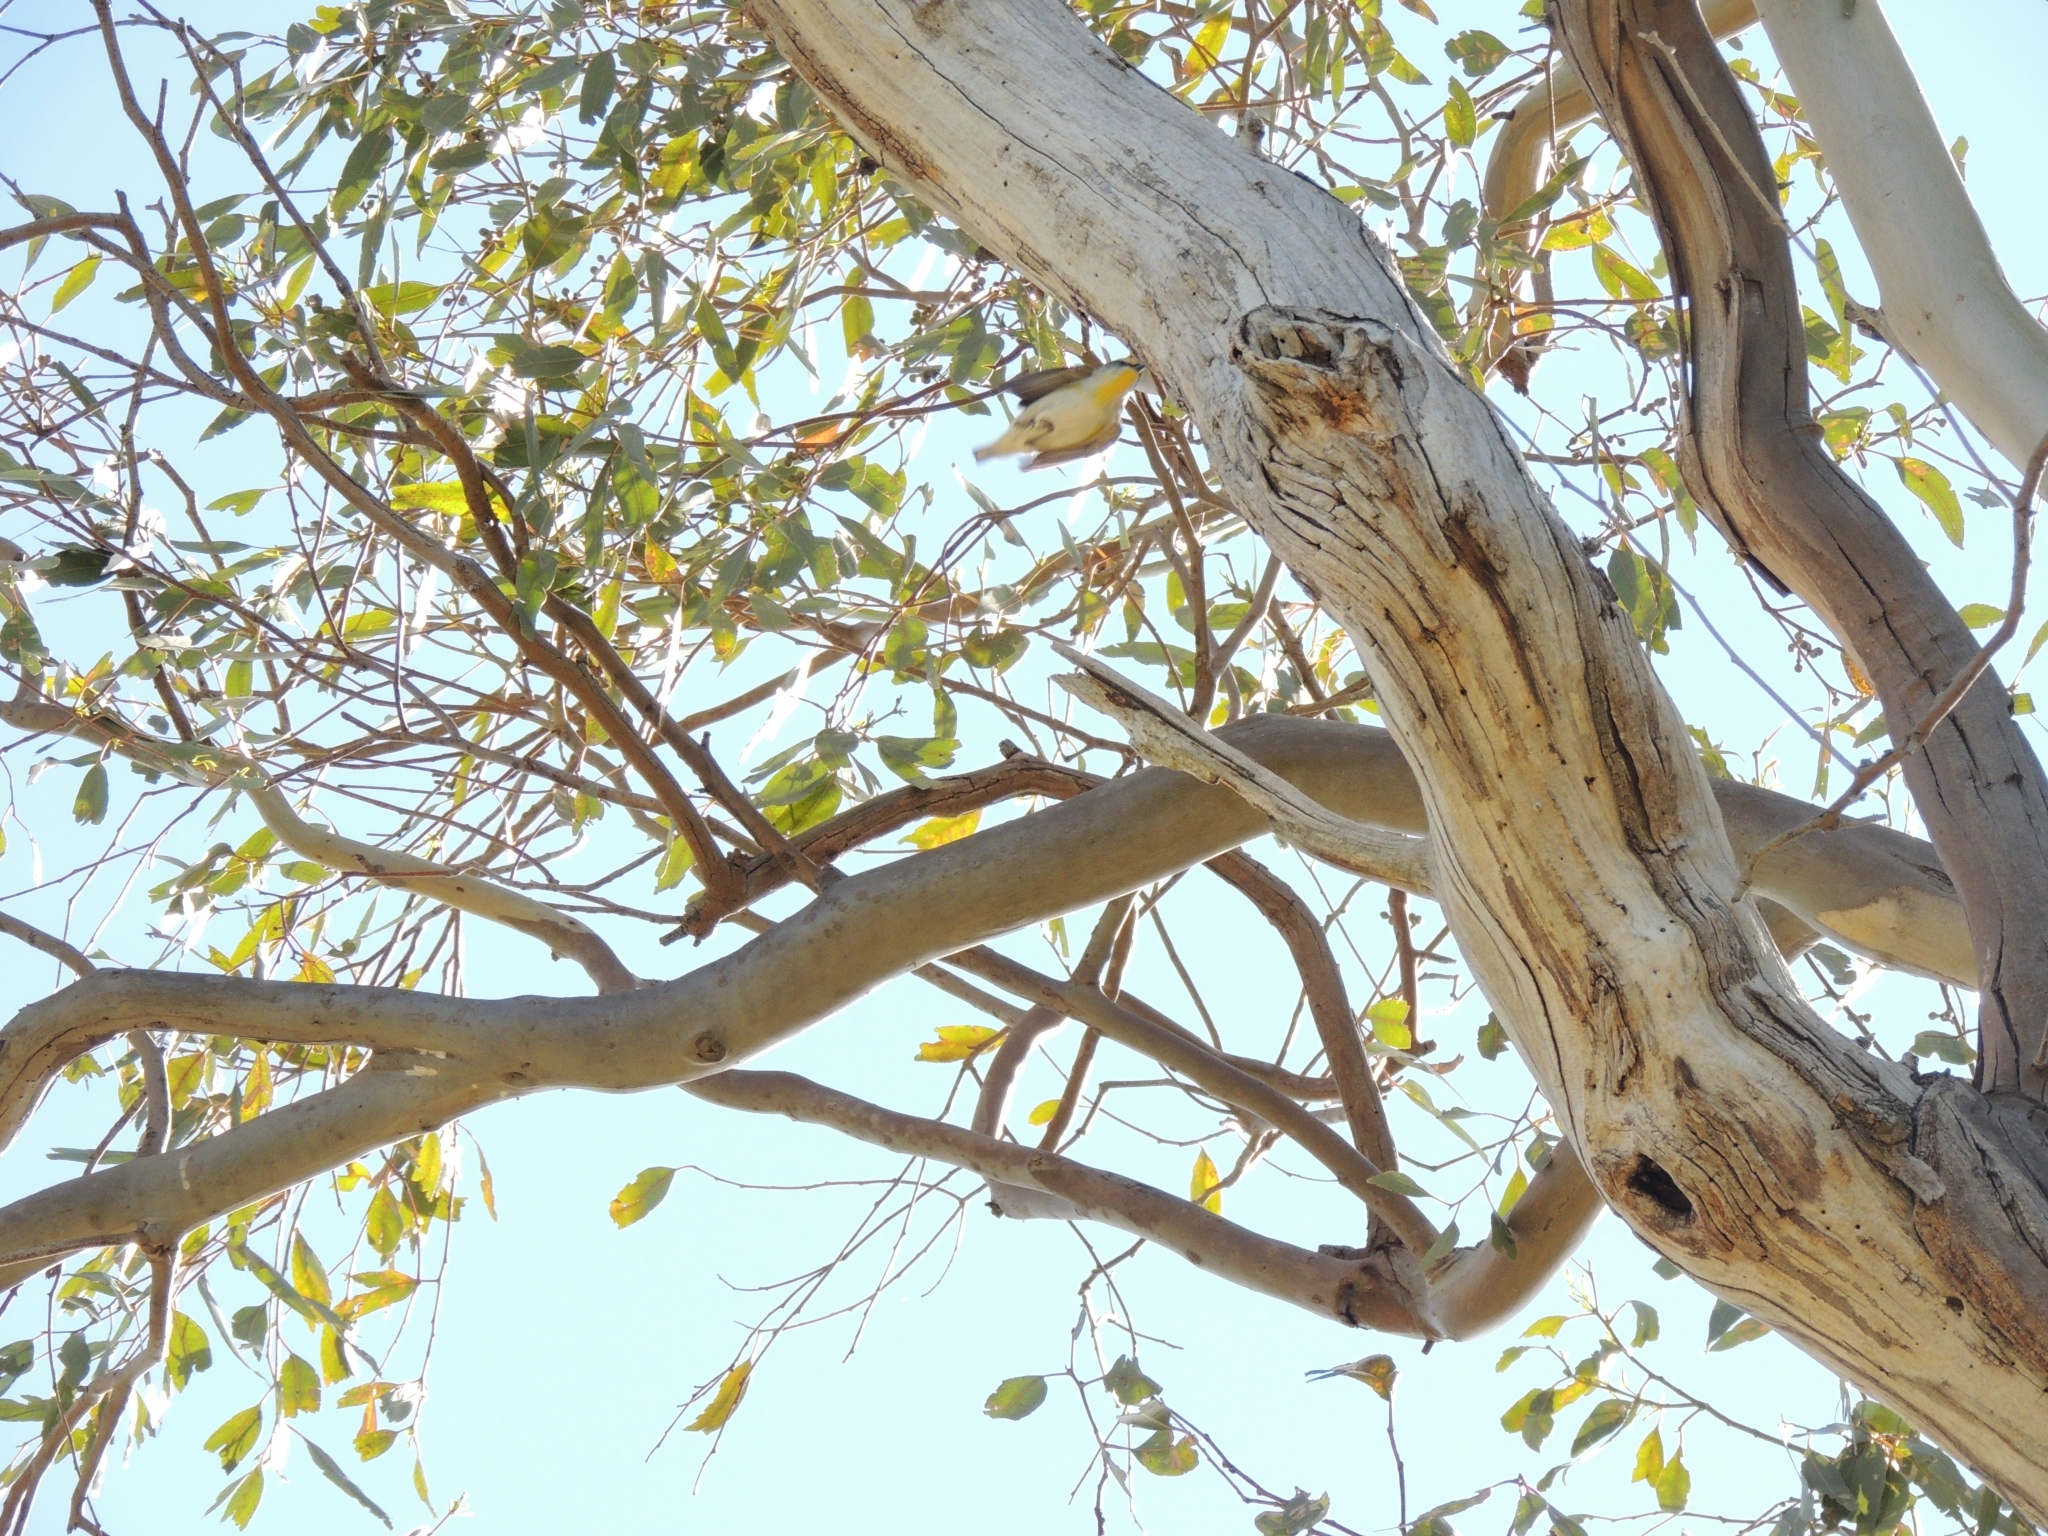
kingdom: Animalia
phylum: Chordata
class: Aves
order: Passeriformes
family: Pardalotidae
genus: Pardalotus
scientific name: Pardalotus striatus
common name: Striated pardalote
